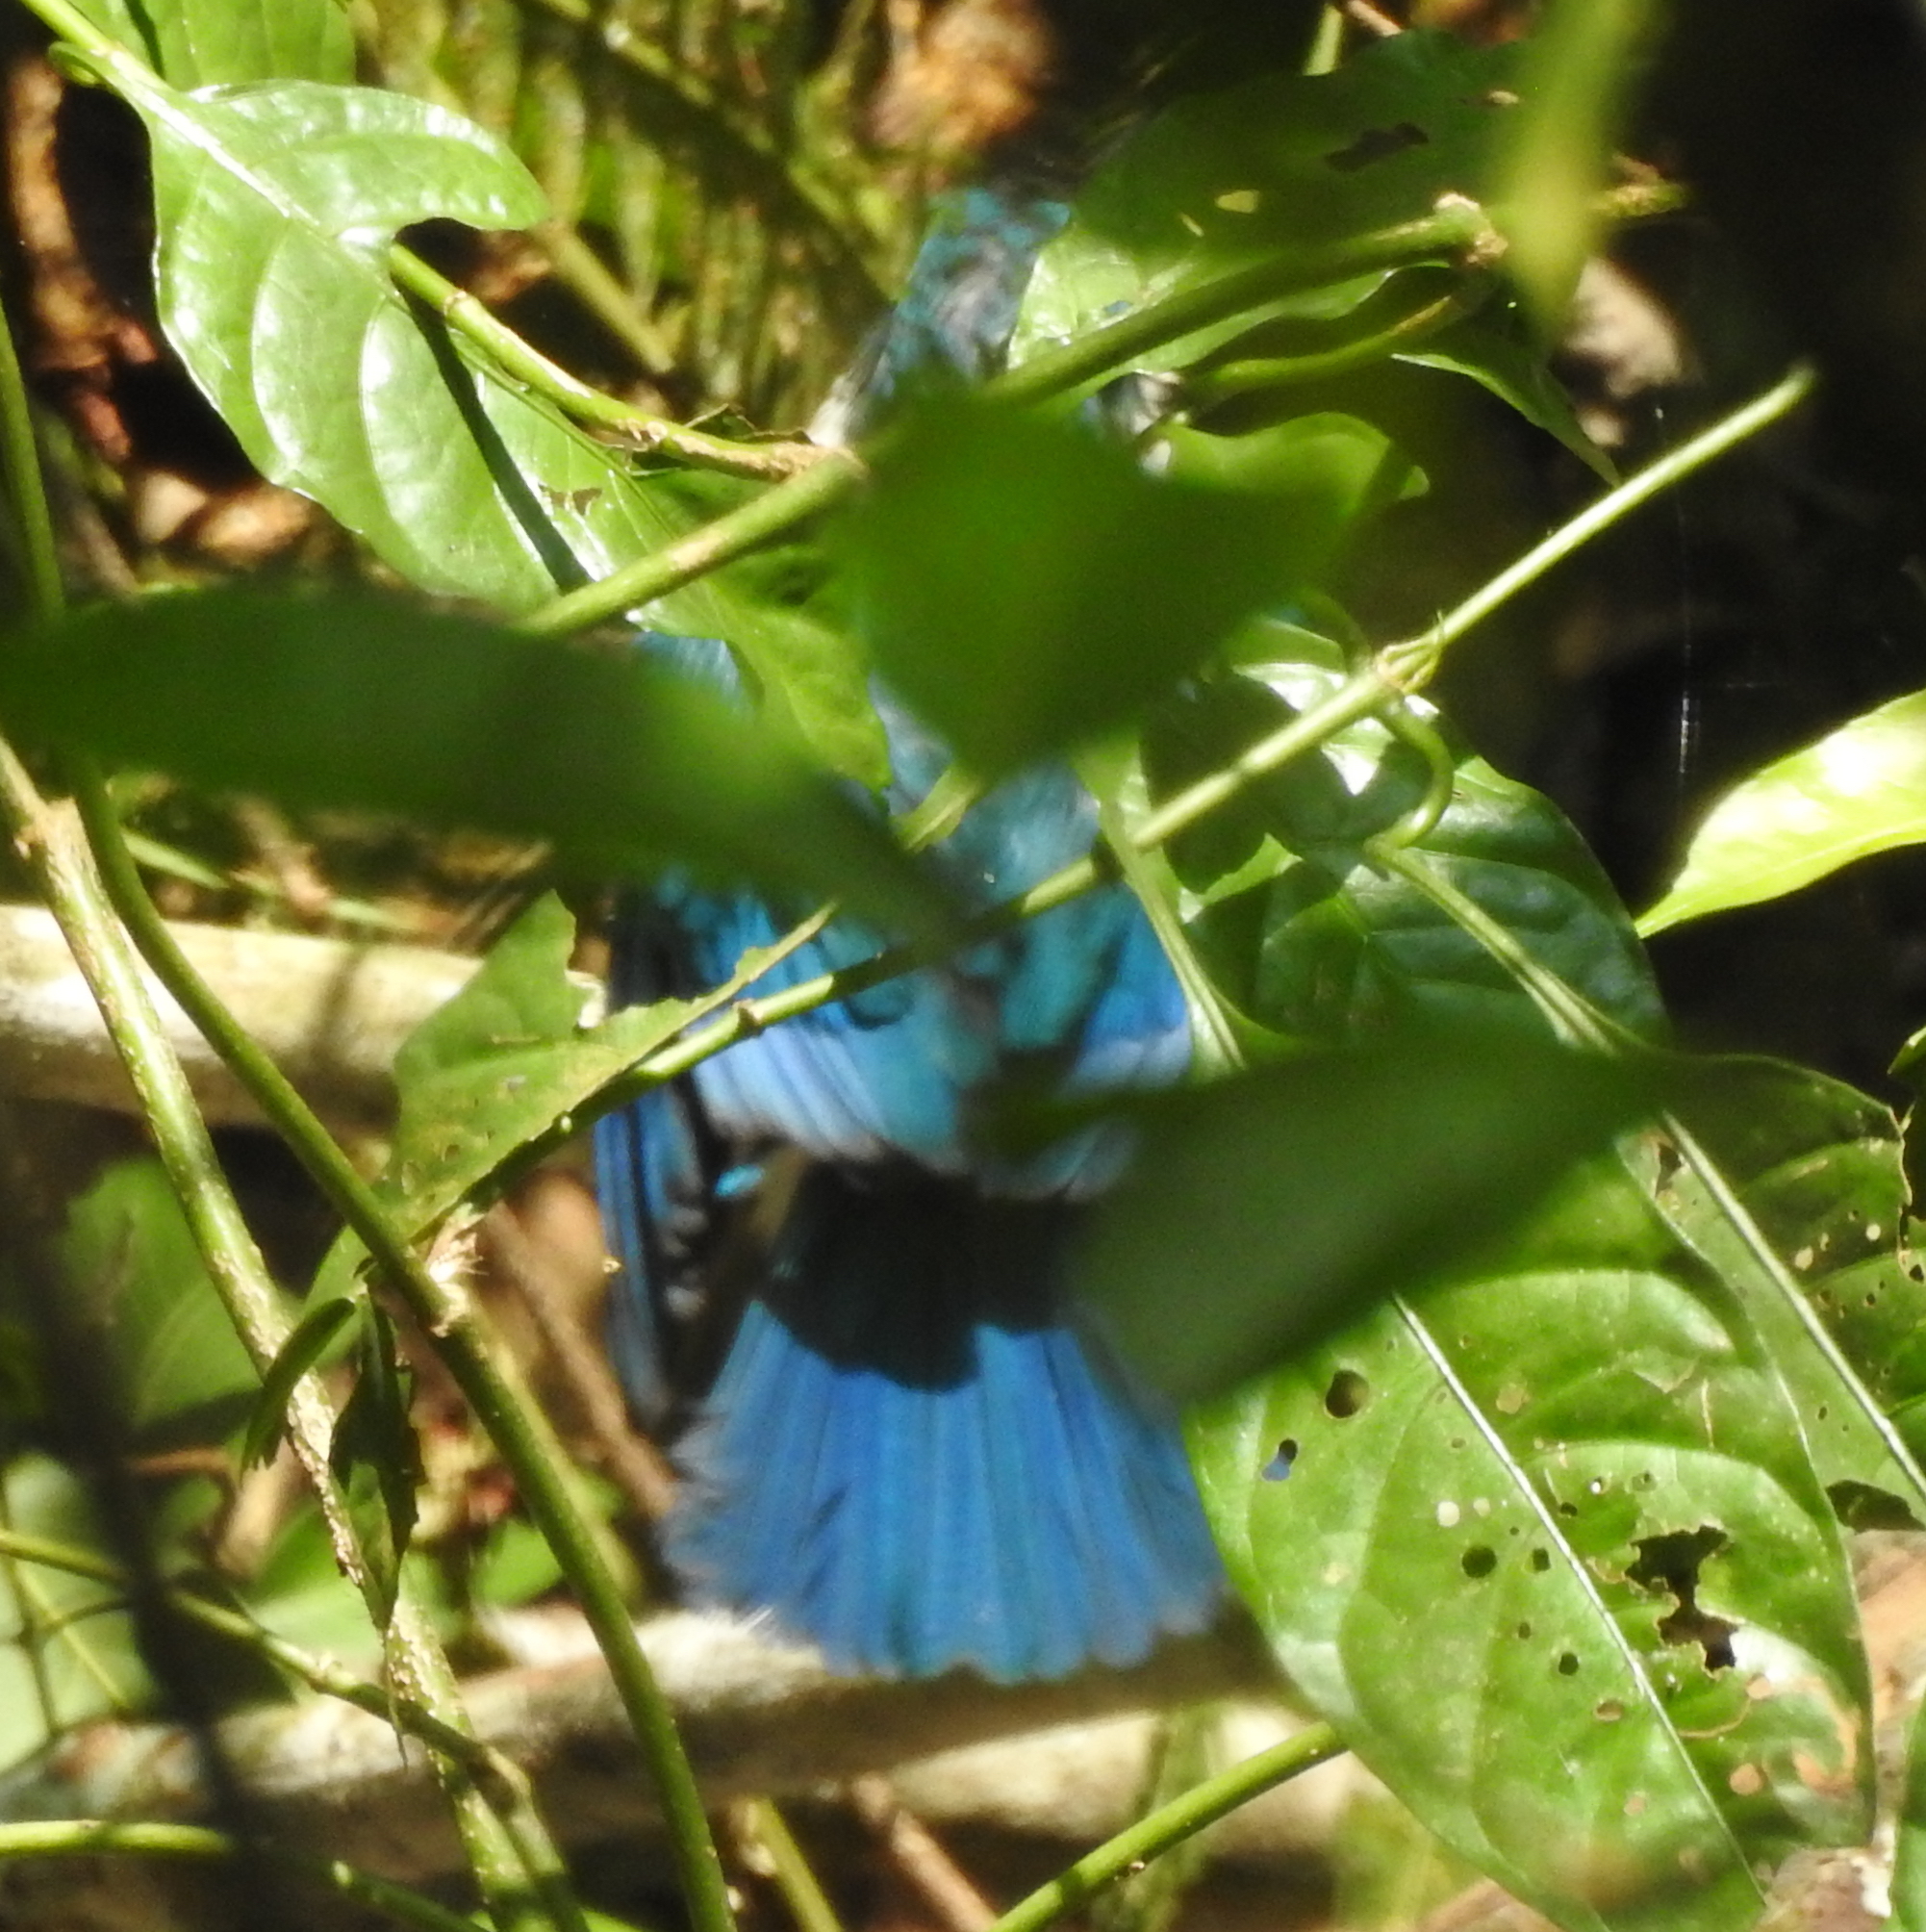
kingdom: Animalia
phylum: Chordata
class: Aves
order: Coraciiformes
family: Alcedinidae
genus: Todiramphus
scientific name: Todiramphus chloris
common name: Collared kingfisher
